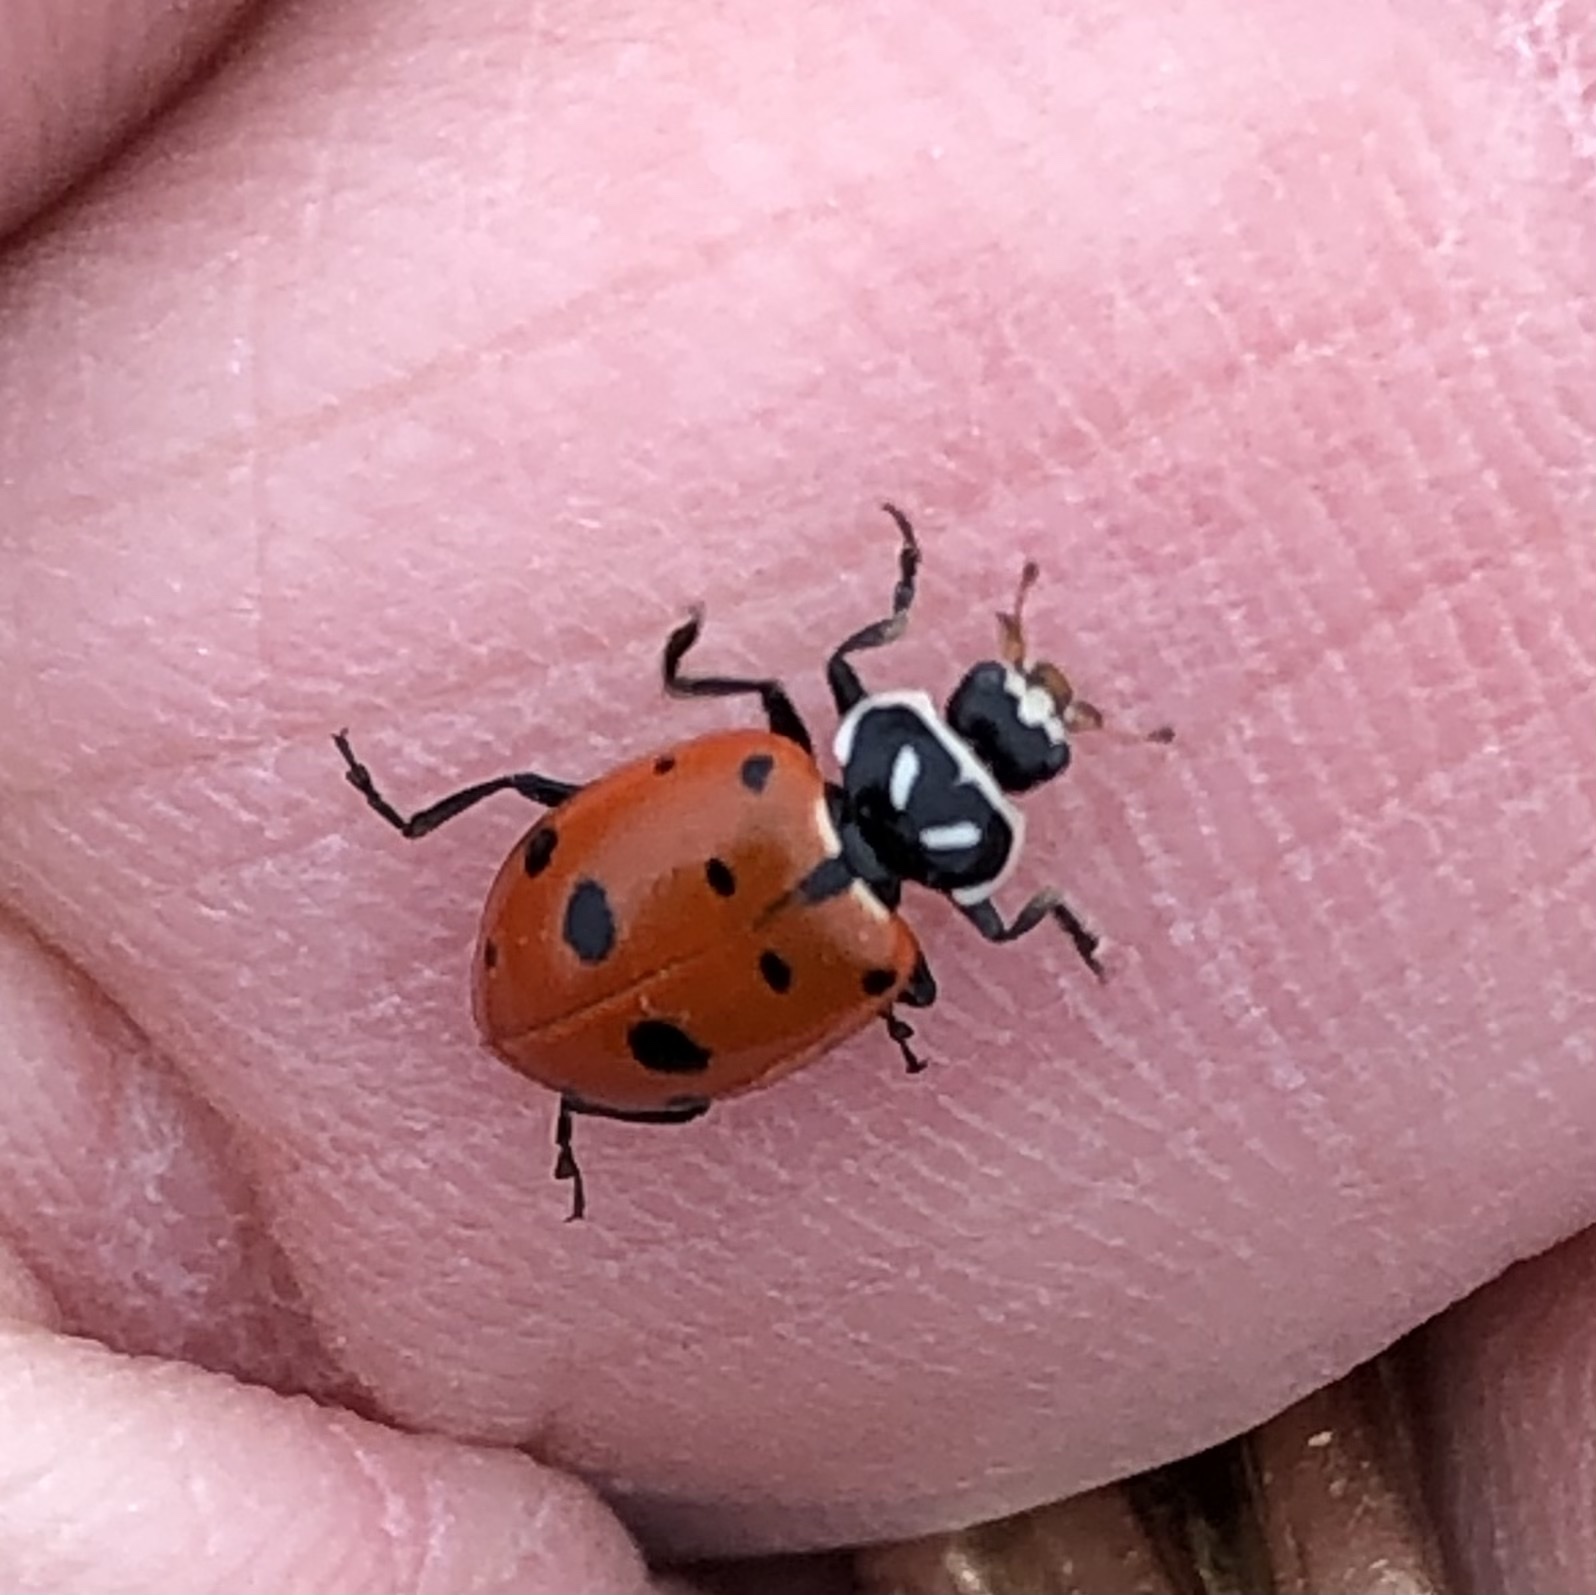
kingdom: Animalia
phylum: Arthropoda
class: Insecta
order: Coleoptera
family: Coccinellidae
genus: Hippodamia
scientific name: Hippodamia convergens
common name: Convergent lady beetle
